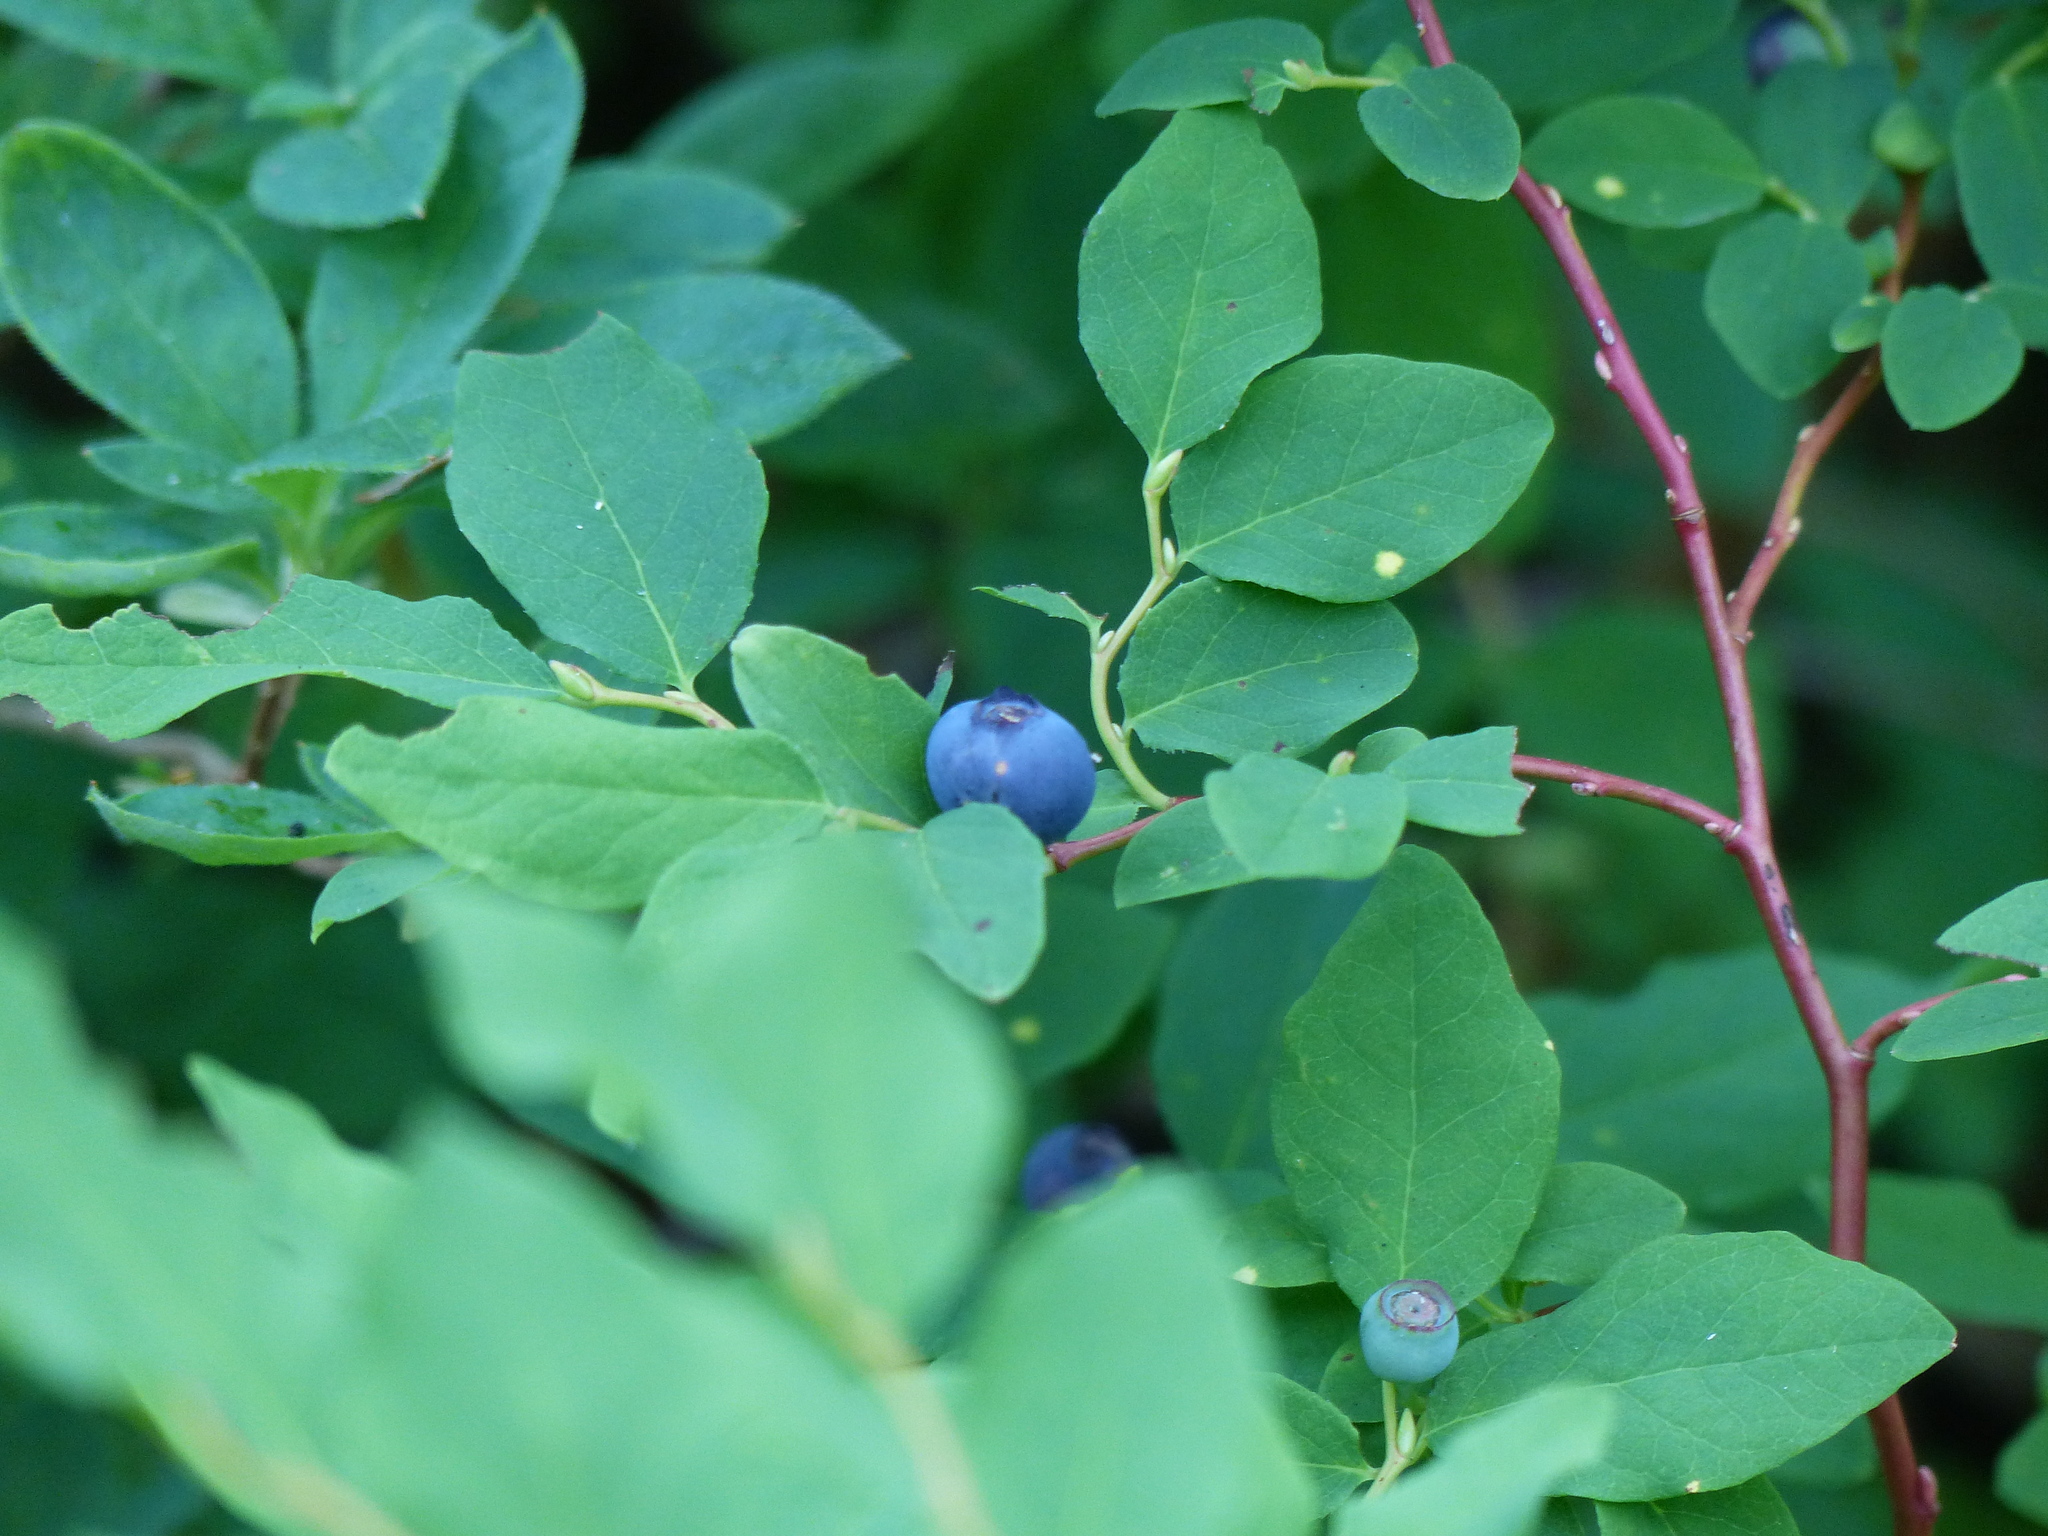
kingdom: Plantae
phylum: Tracheophyta
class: Magnoliopsida
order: Ericales
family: Ericaceae
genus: Vaccinium
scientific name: Vaccinium ovalifolium
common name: Early blueberry
